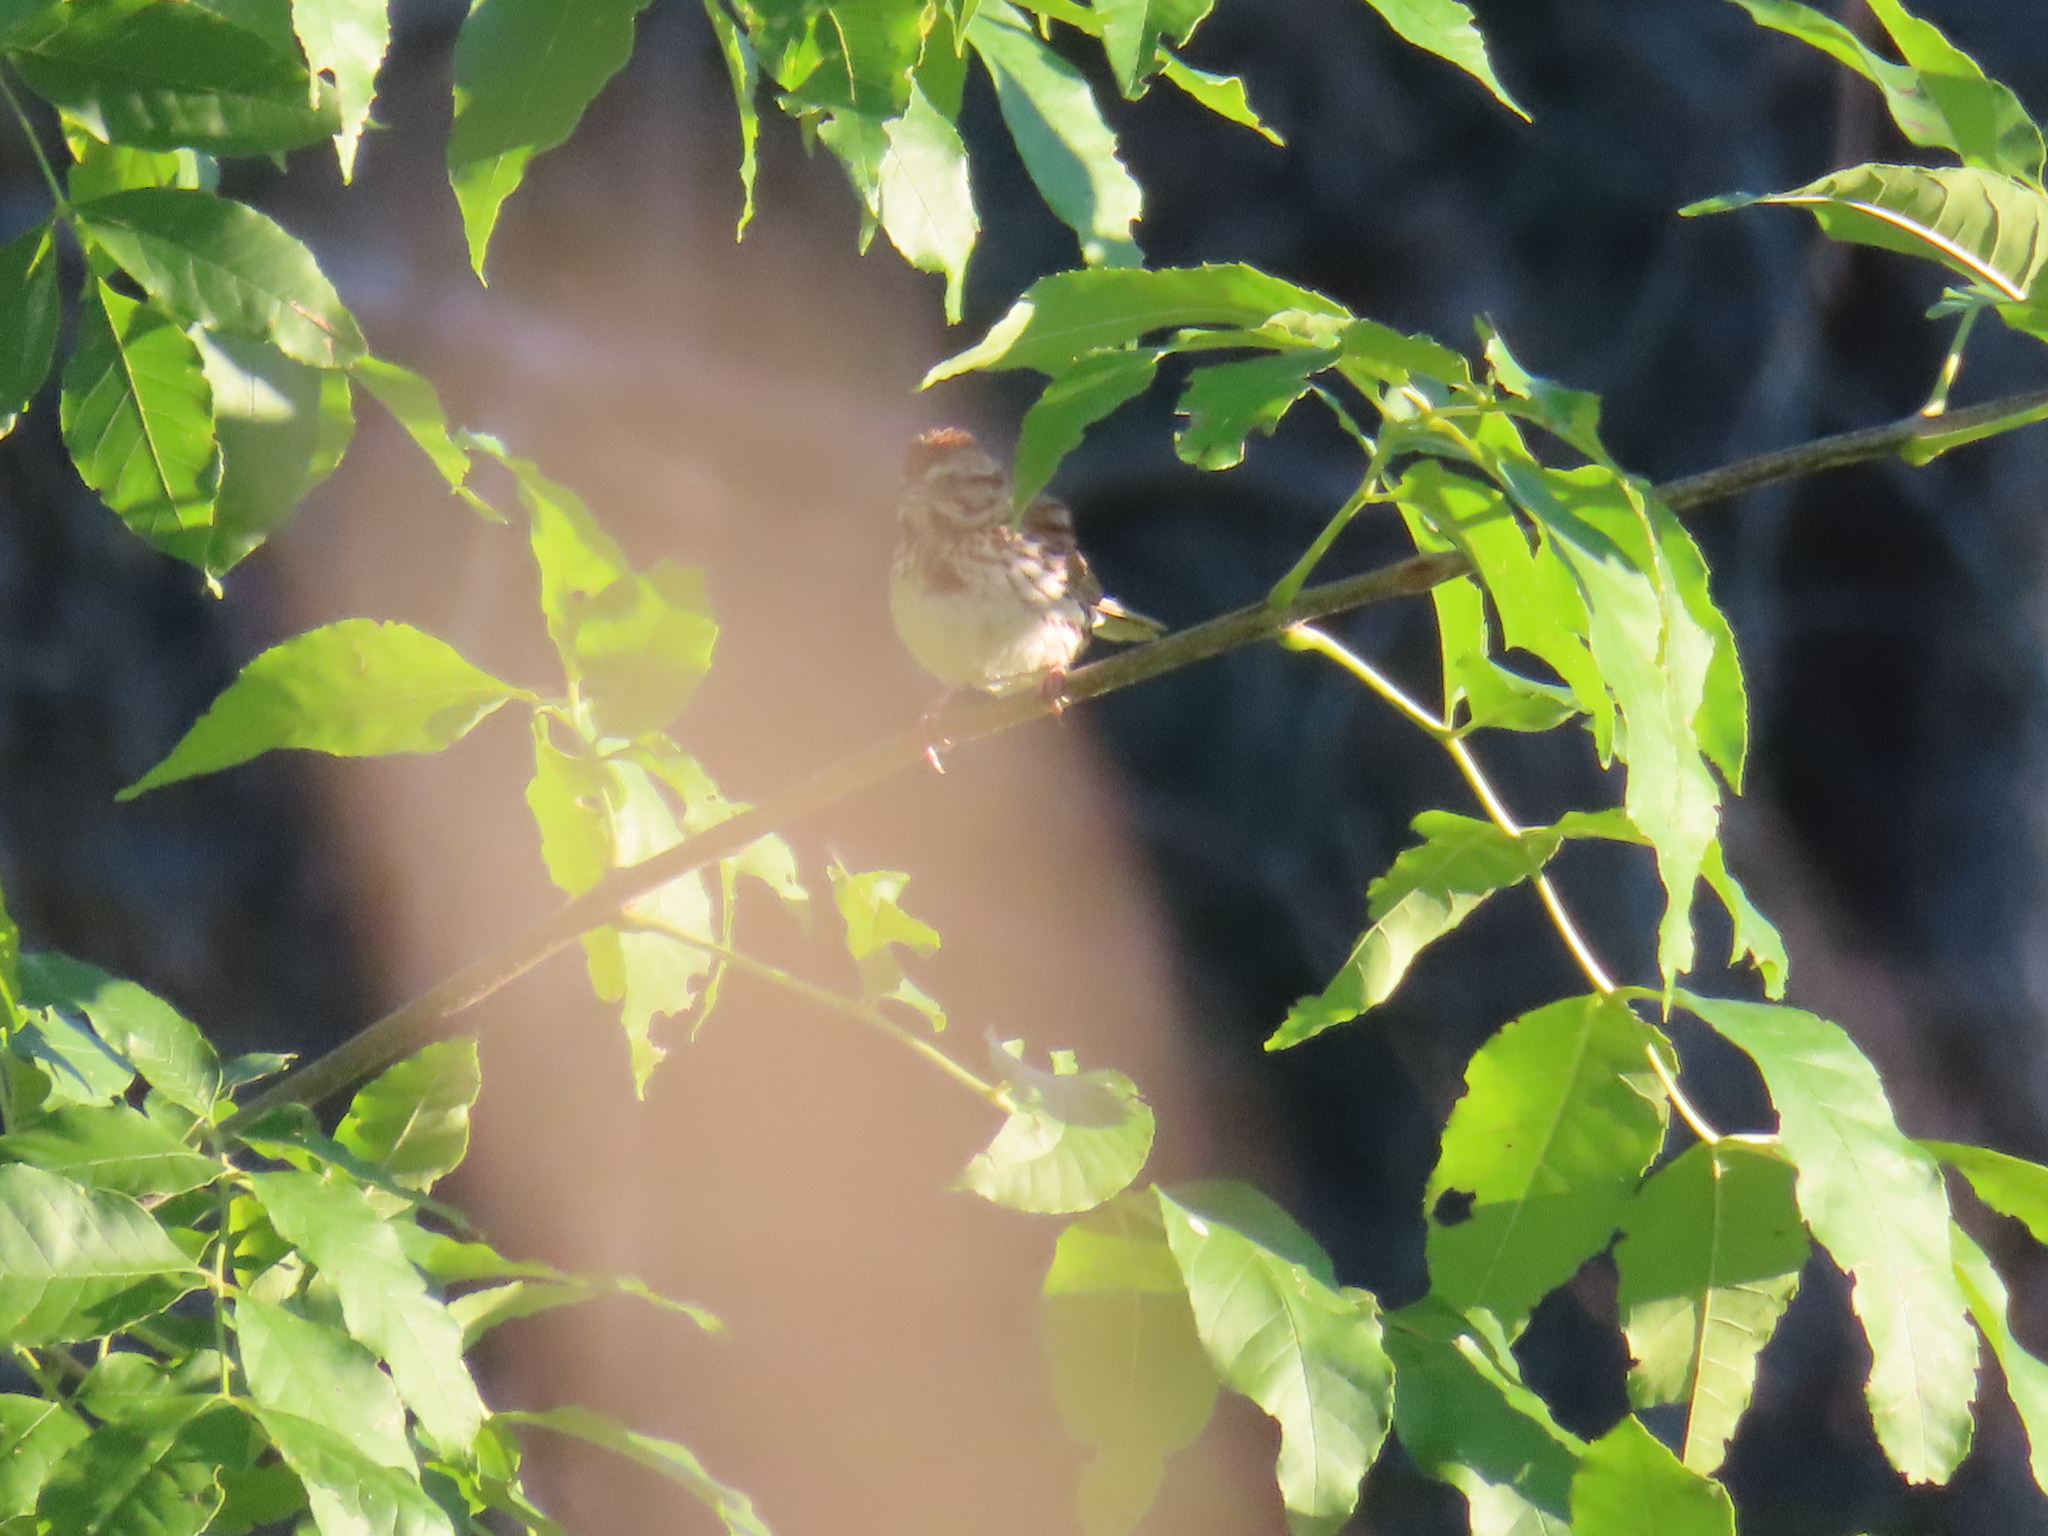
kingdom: Animalia
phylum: Chordata
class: Aves
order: Passeriformes
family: Passerellidae
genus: Melospiza
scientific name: Melospiza melodia
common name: Song sparrow
